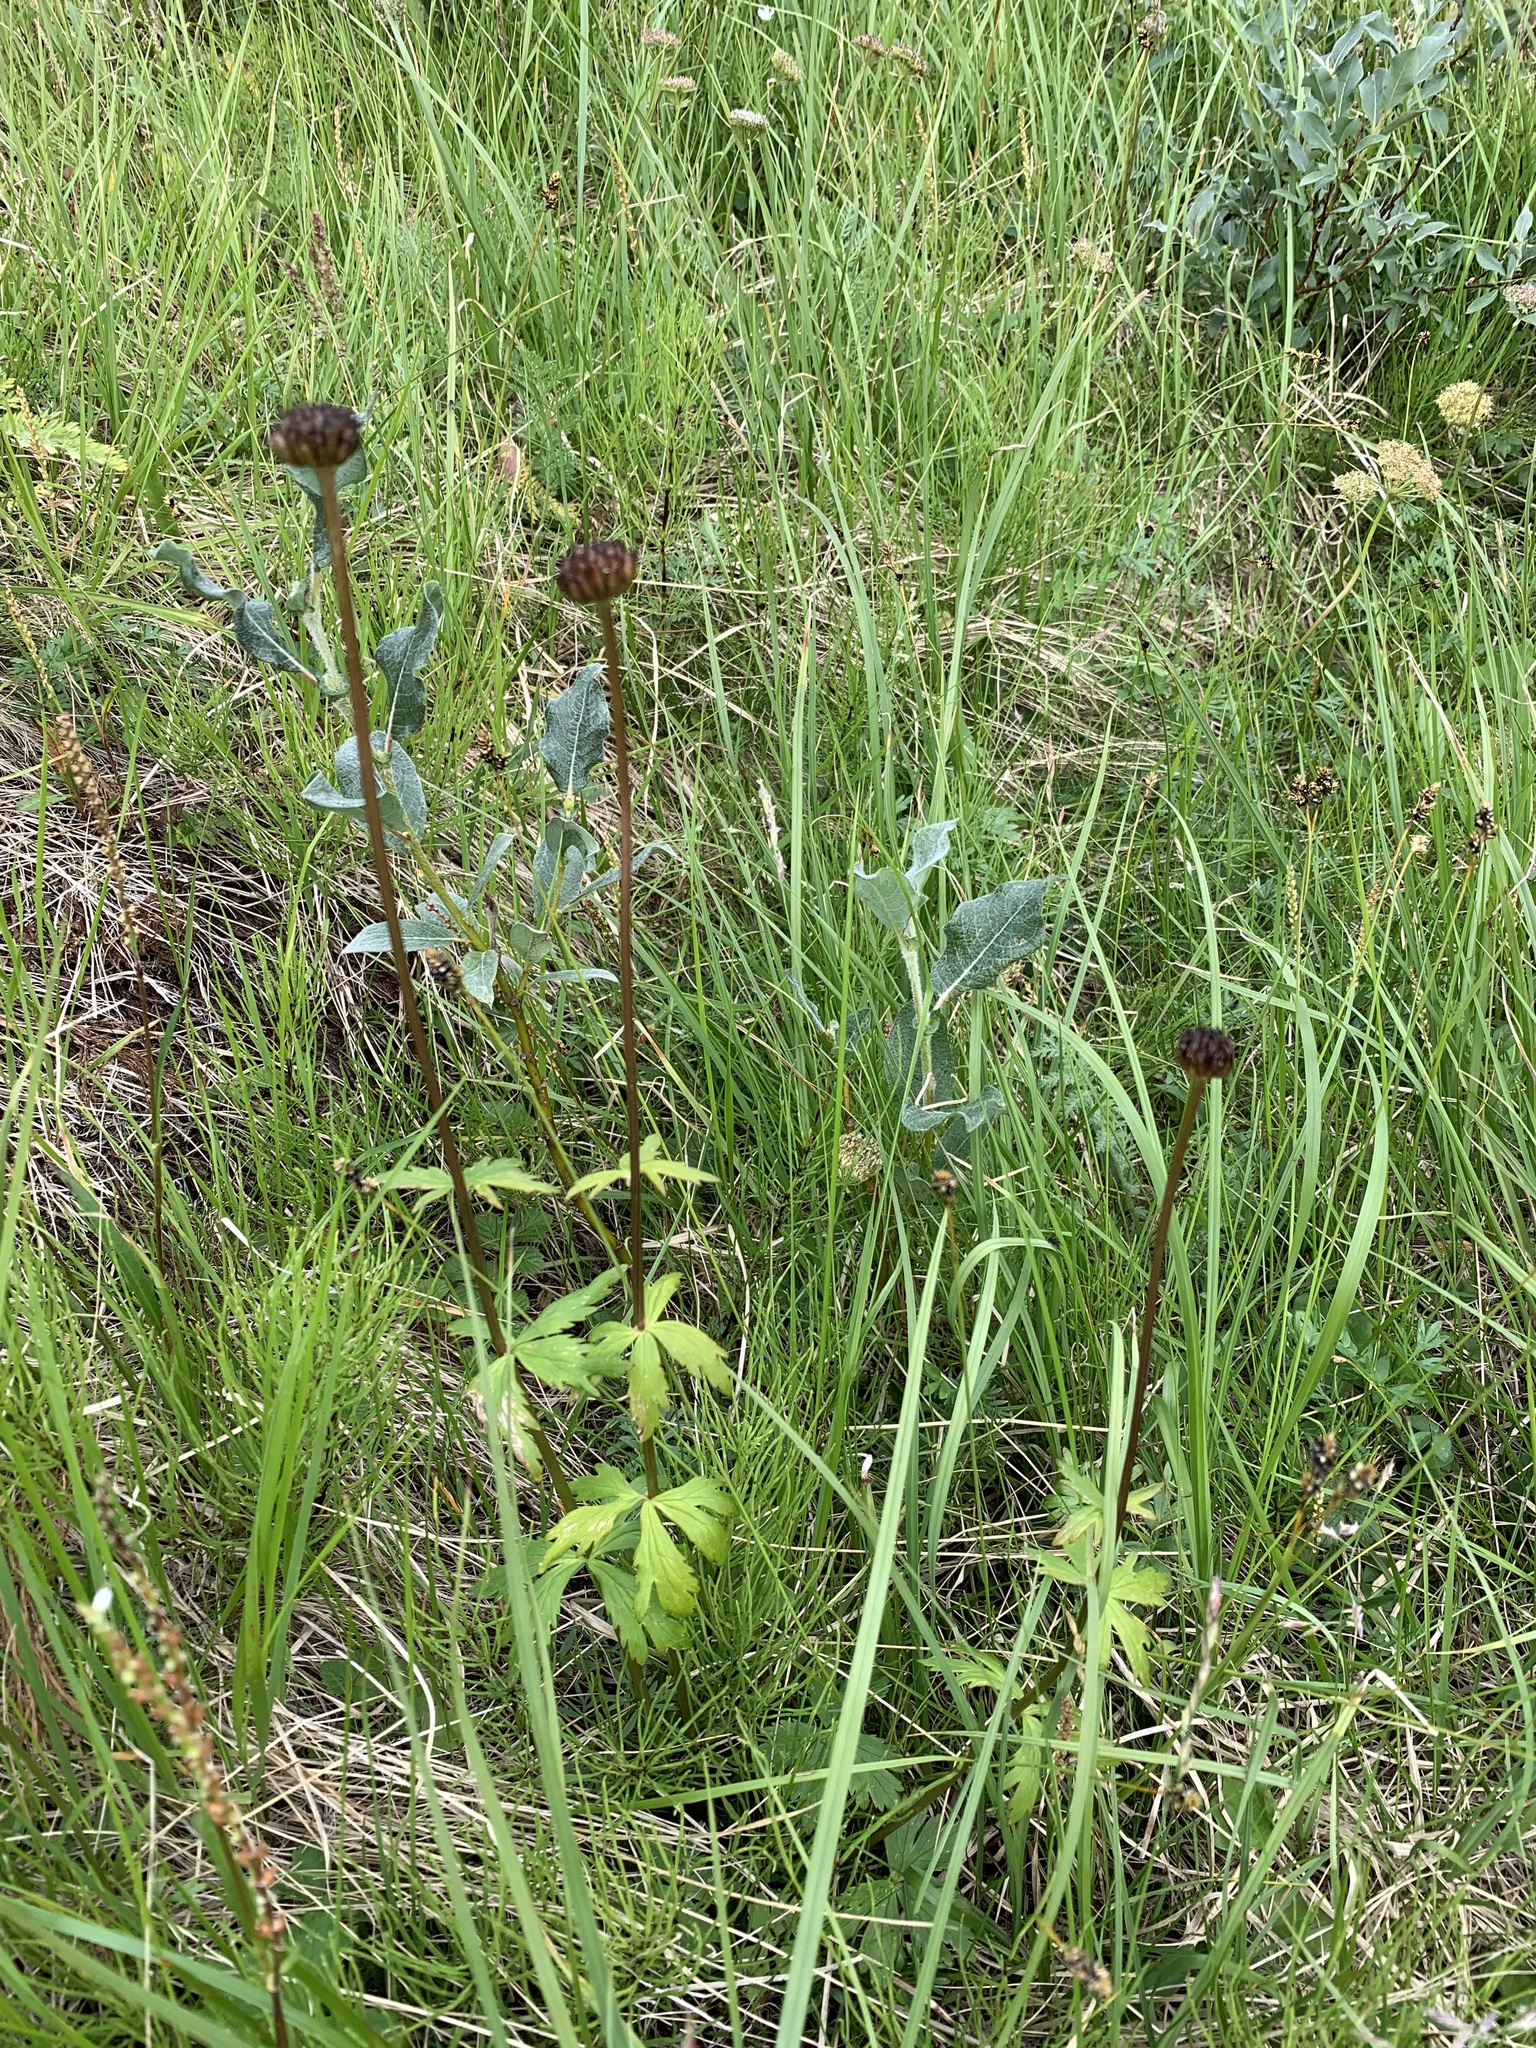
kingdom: Plantae
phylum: Tracheophyta
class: Magnoliopsida
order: Ranunculales
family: Ranunculaceae
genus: Trollius
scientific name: Trollius asiaticus
